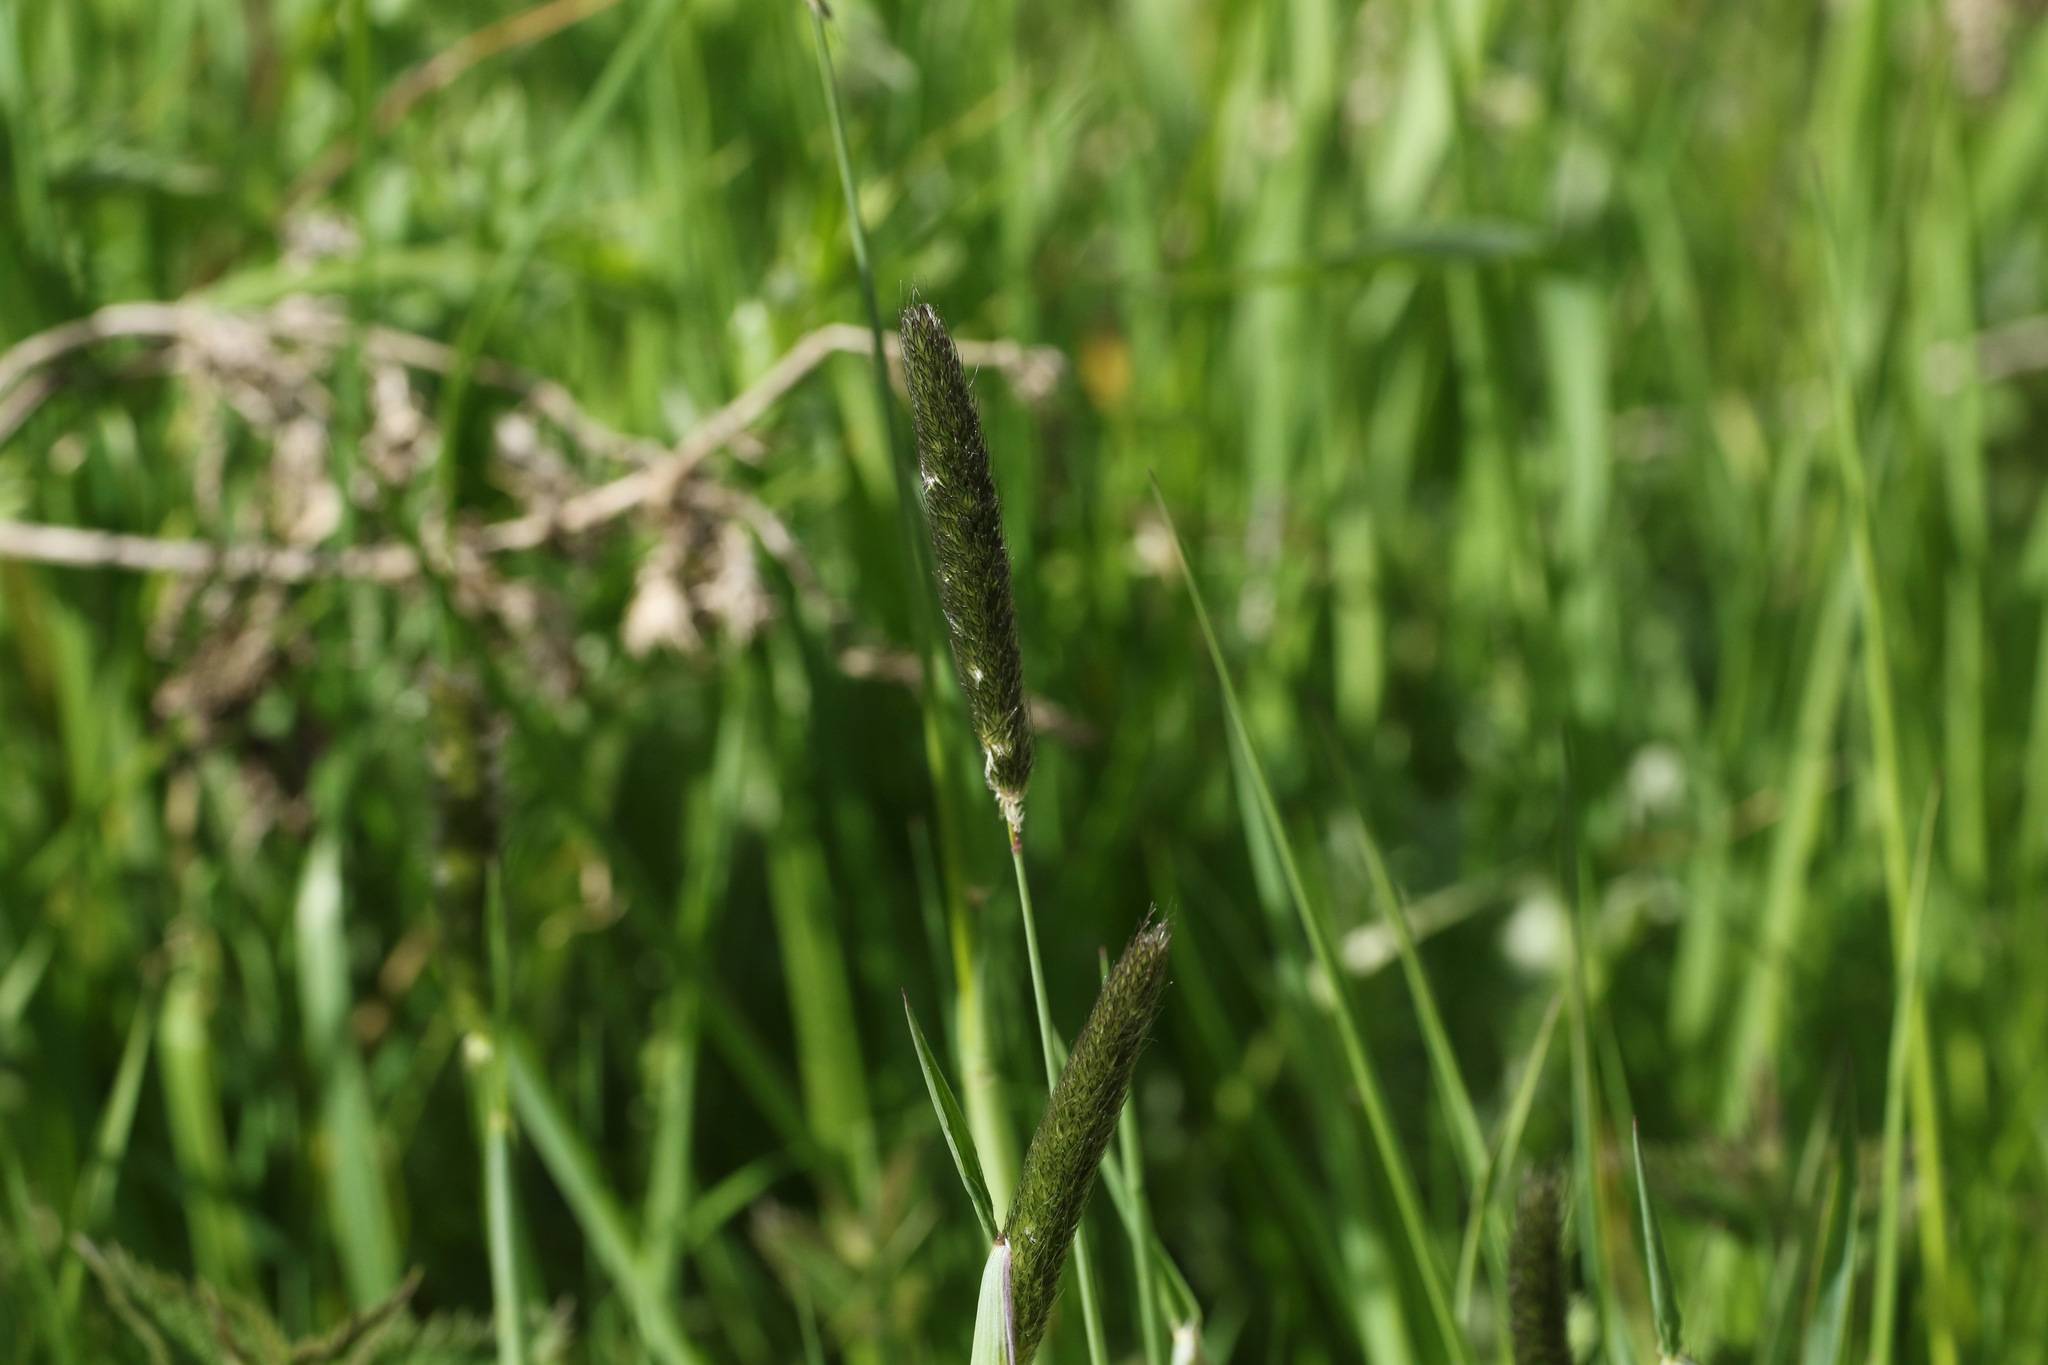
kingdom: Plantae
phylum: Tracheophyta
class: Liliopsida
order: Poales
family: Poaceae
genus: Alopecurus
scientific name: Alopecurus pratensis
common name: Meadow foxtail
